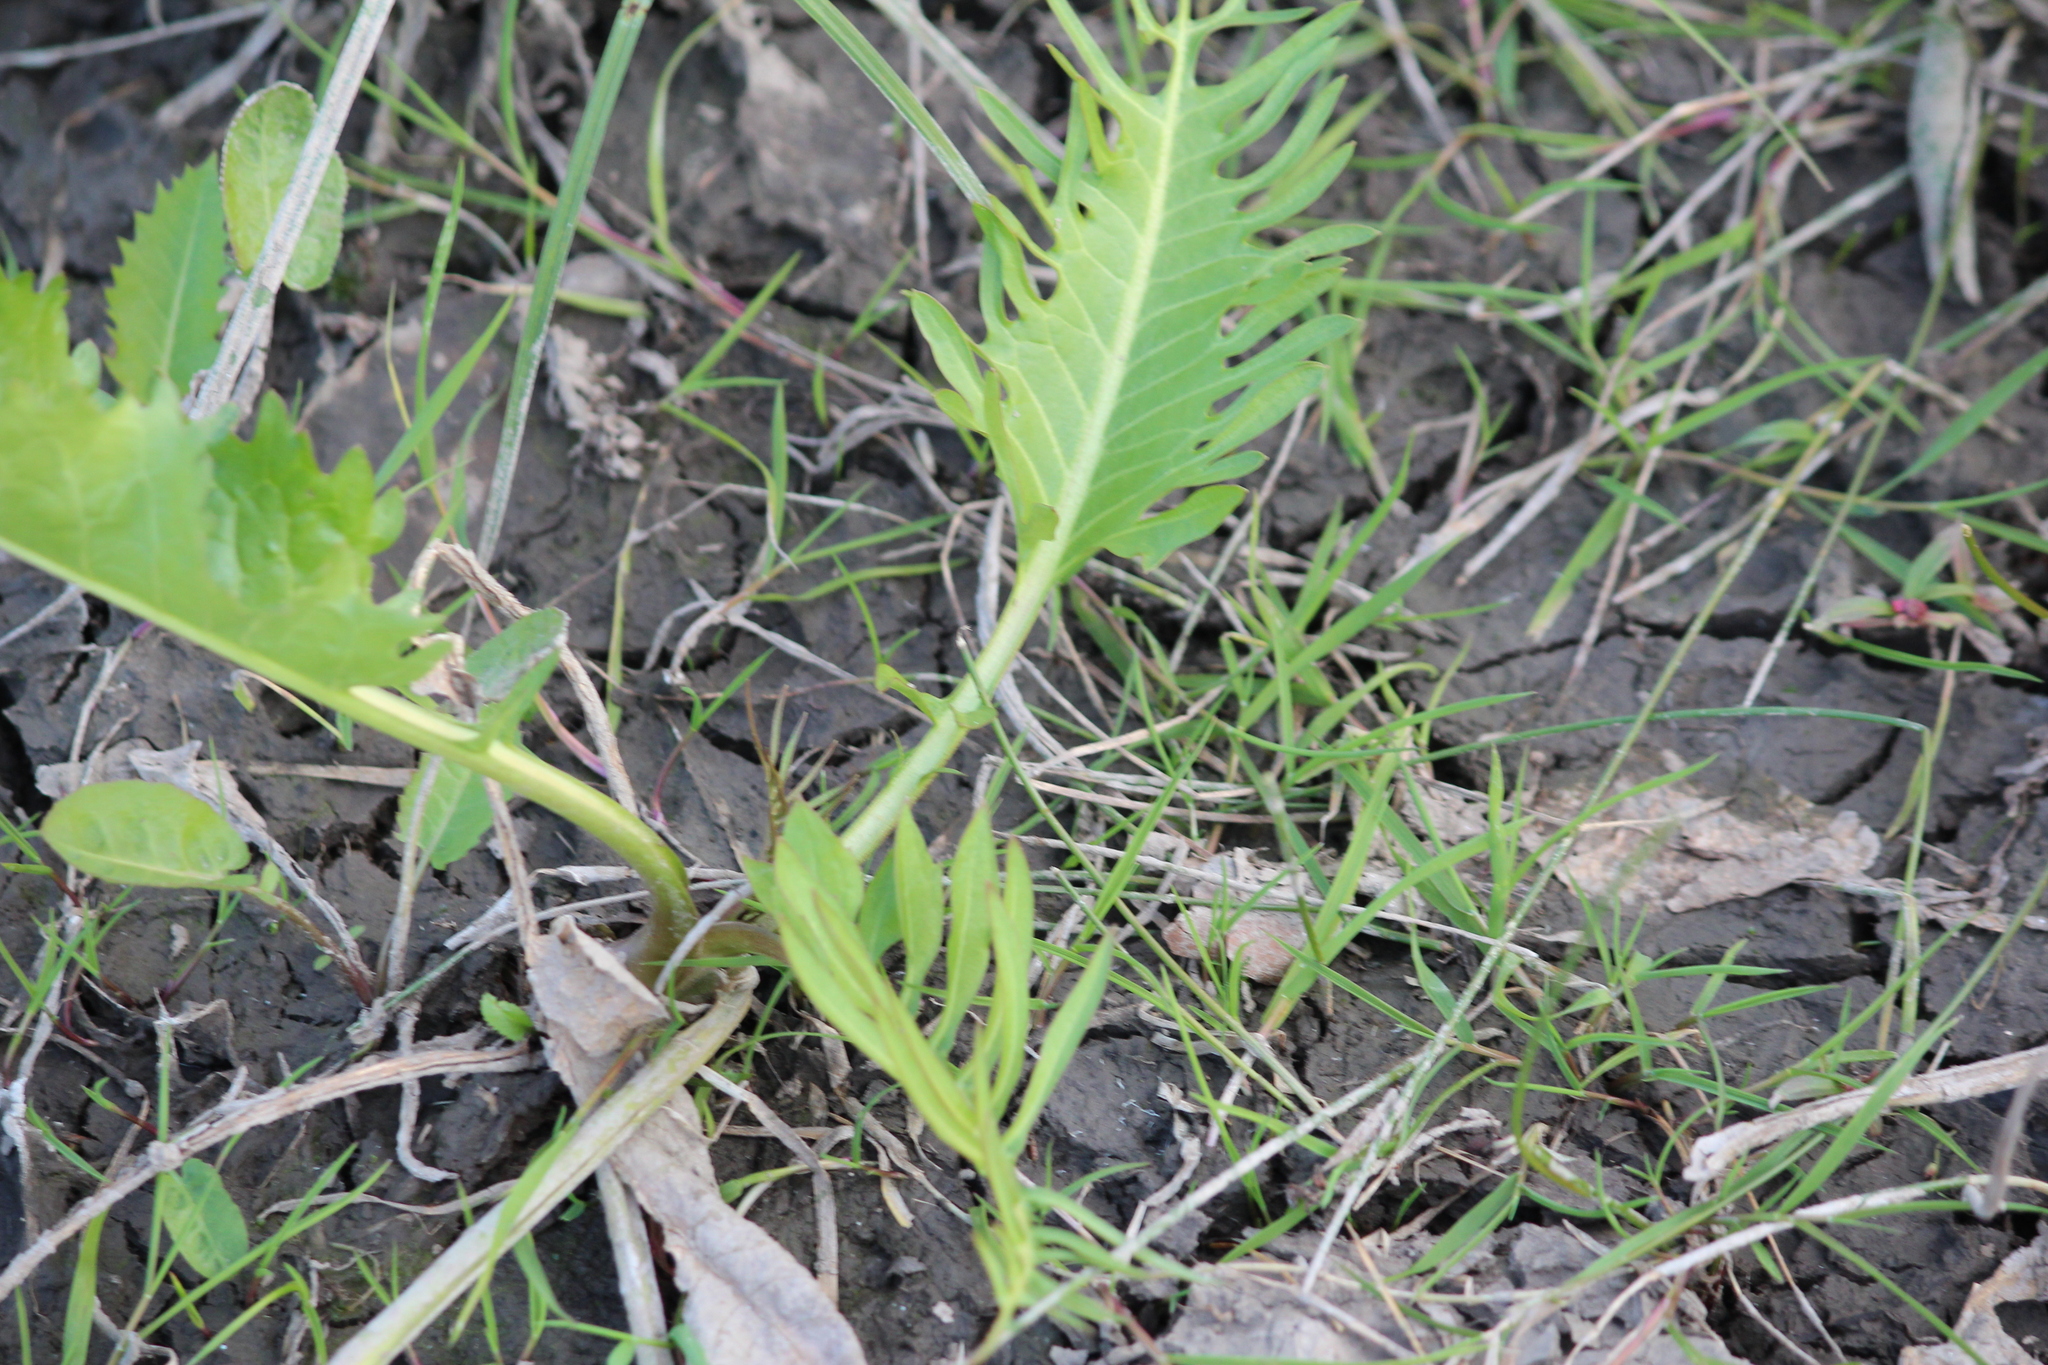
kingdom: Plantae
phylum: Tracheophyta
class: Magnoliopsida
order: Brassicales
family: Brassicaceae
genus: Rorippa
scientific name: Rorippa amphibia
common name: Great yellow-cress
